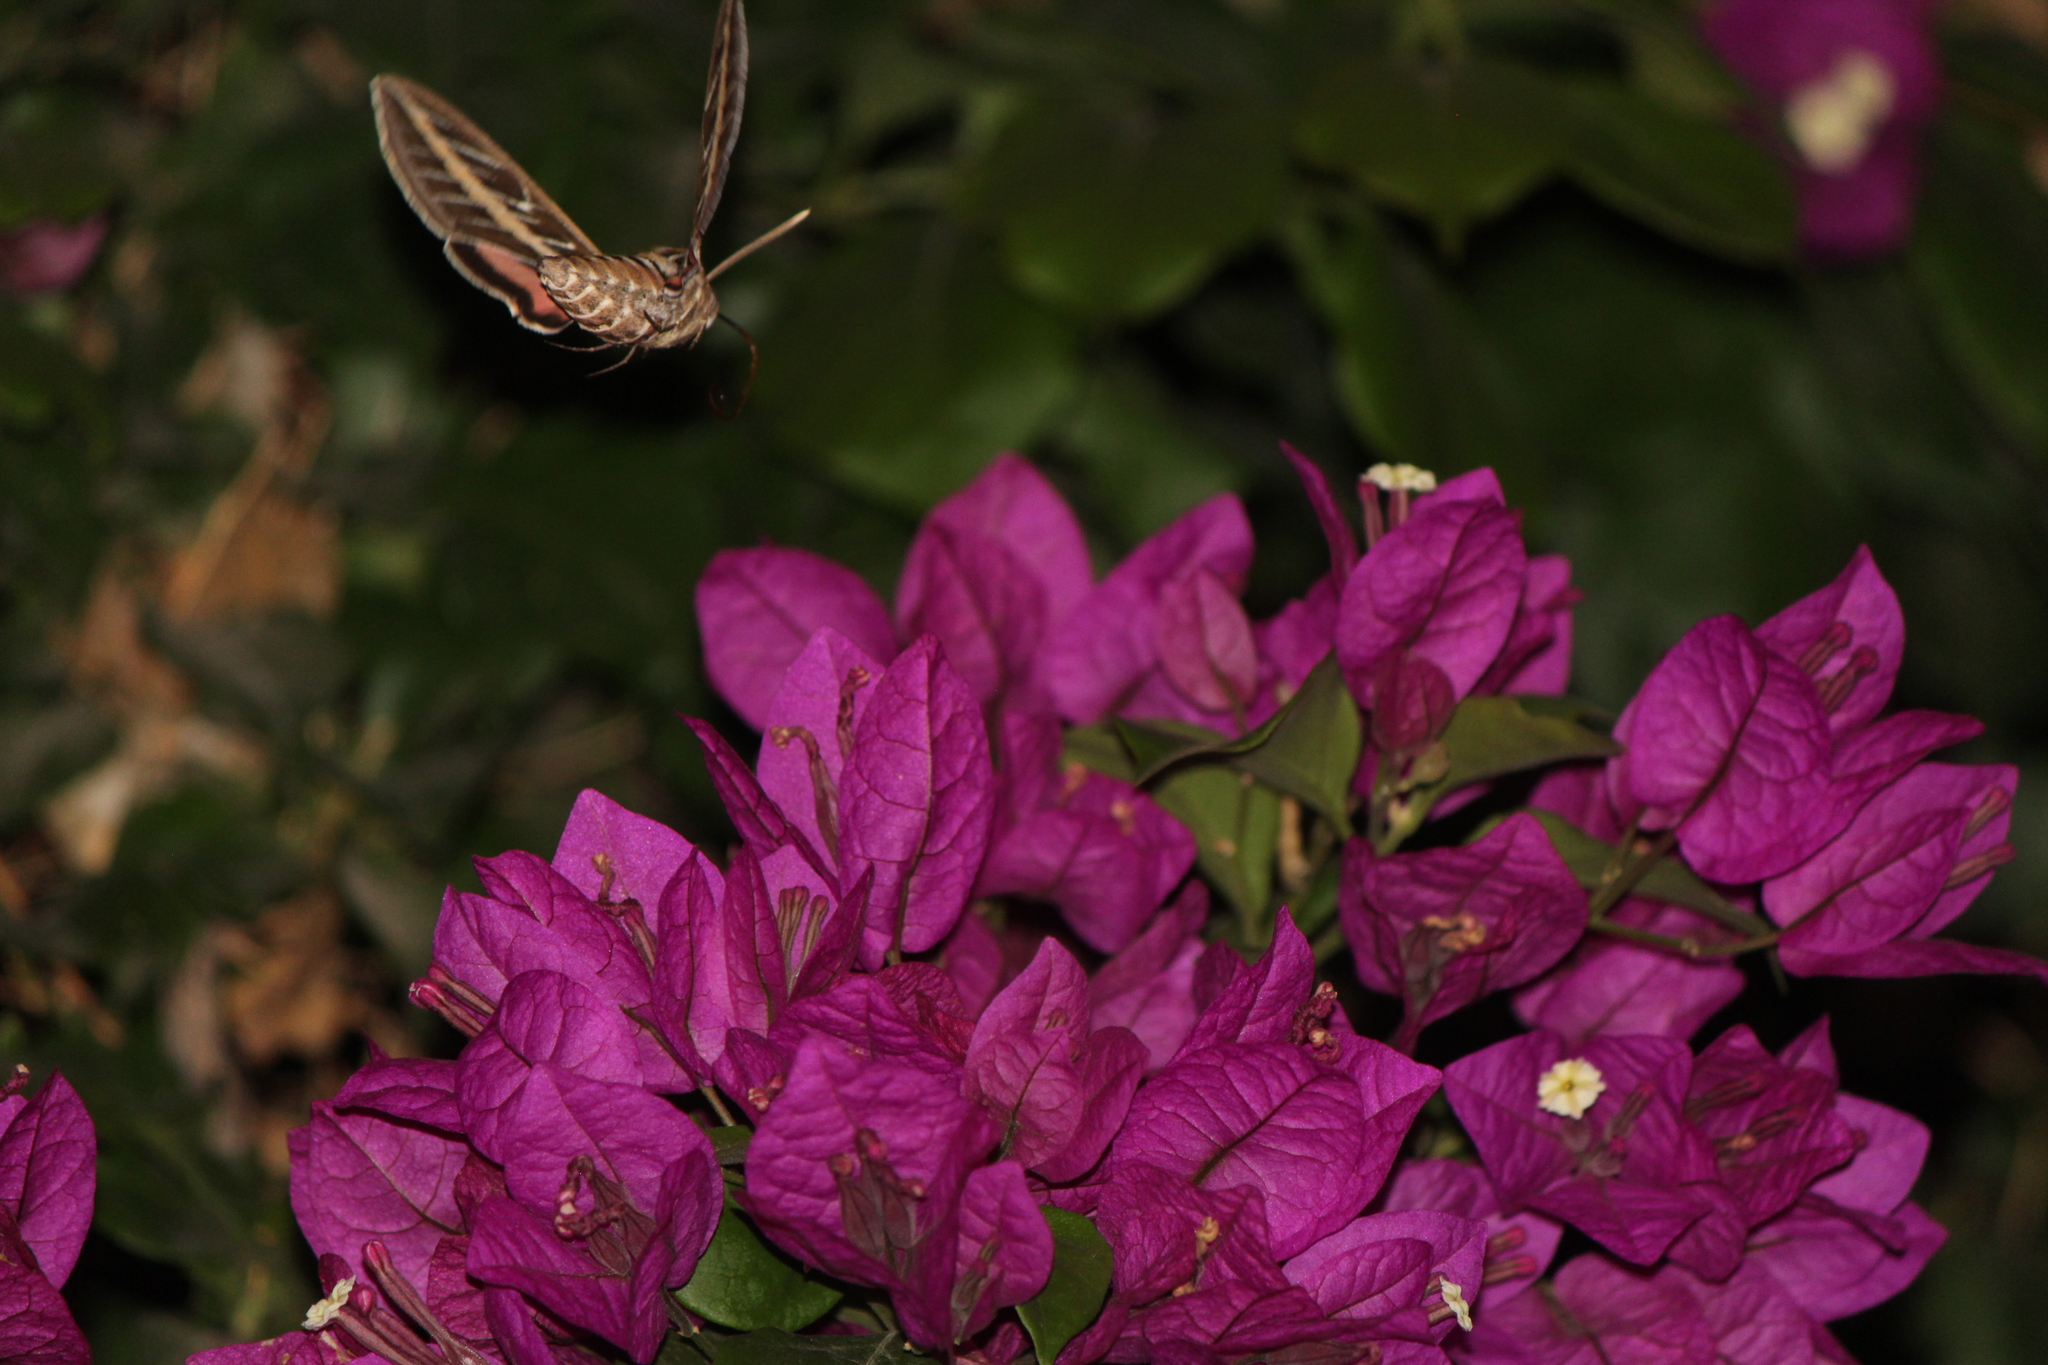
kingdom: Animalia
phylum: Arthropoda
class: Insecta
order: Lepidoptera
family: Sphingidae
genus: Hyles
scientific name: Hyles lineata
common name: White-lined sphinx
